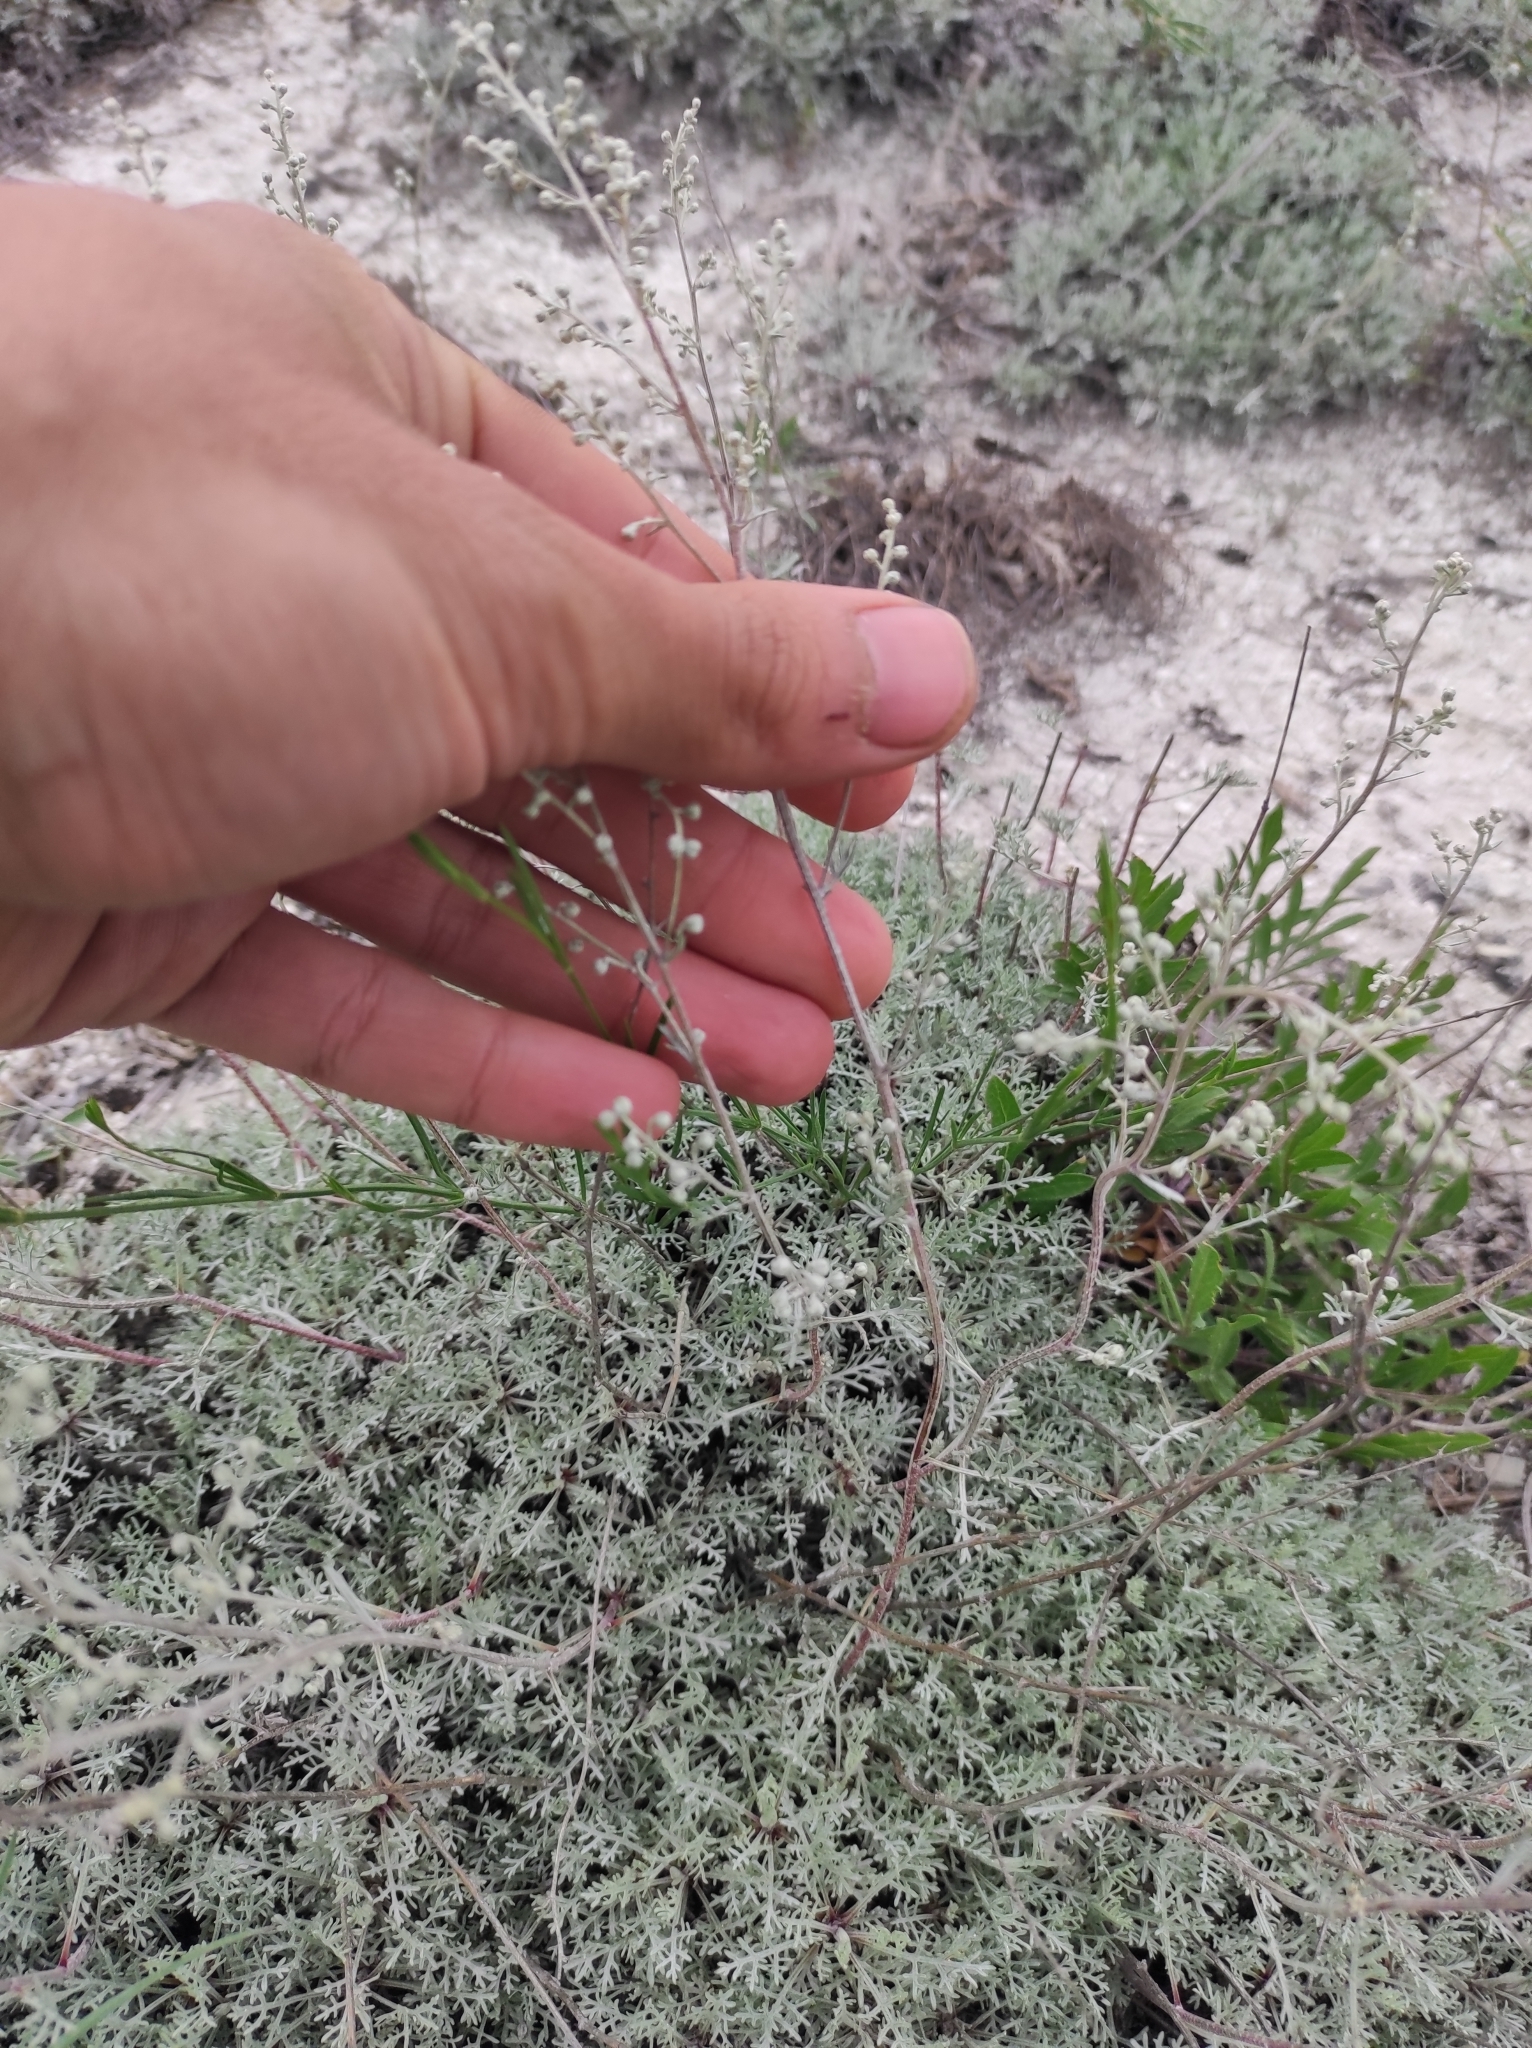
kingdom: Plantae
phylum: Tracheophyta
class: Magnoliopsida
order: Asterales
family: Asteraceae
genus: Artemisia
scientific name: Artemisia hololeuca
